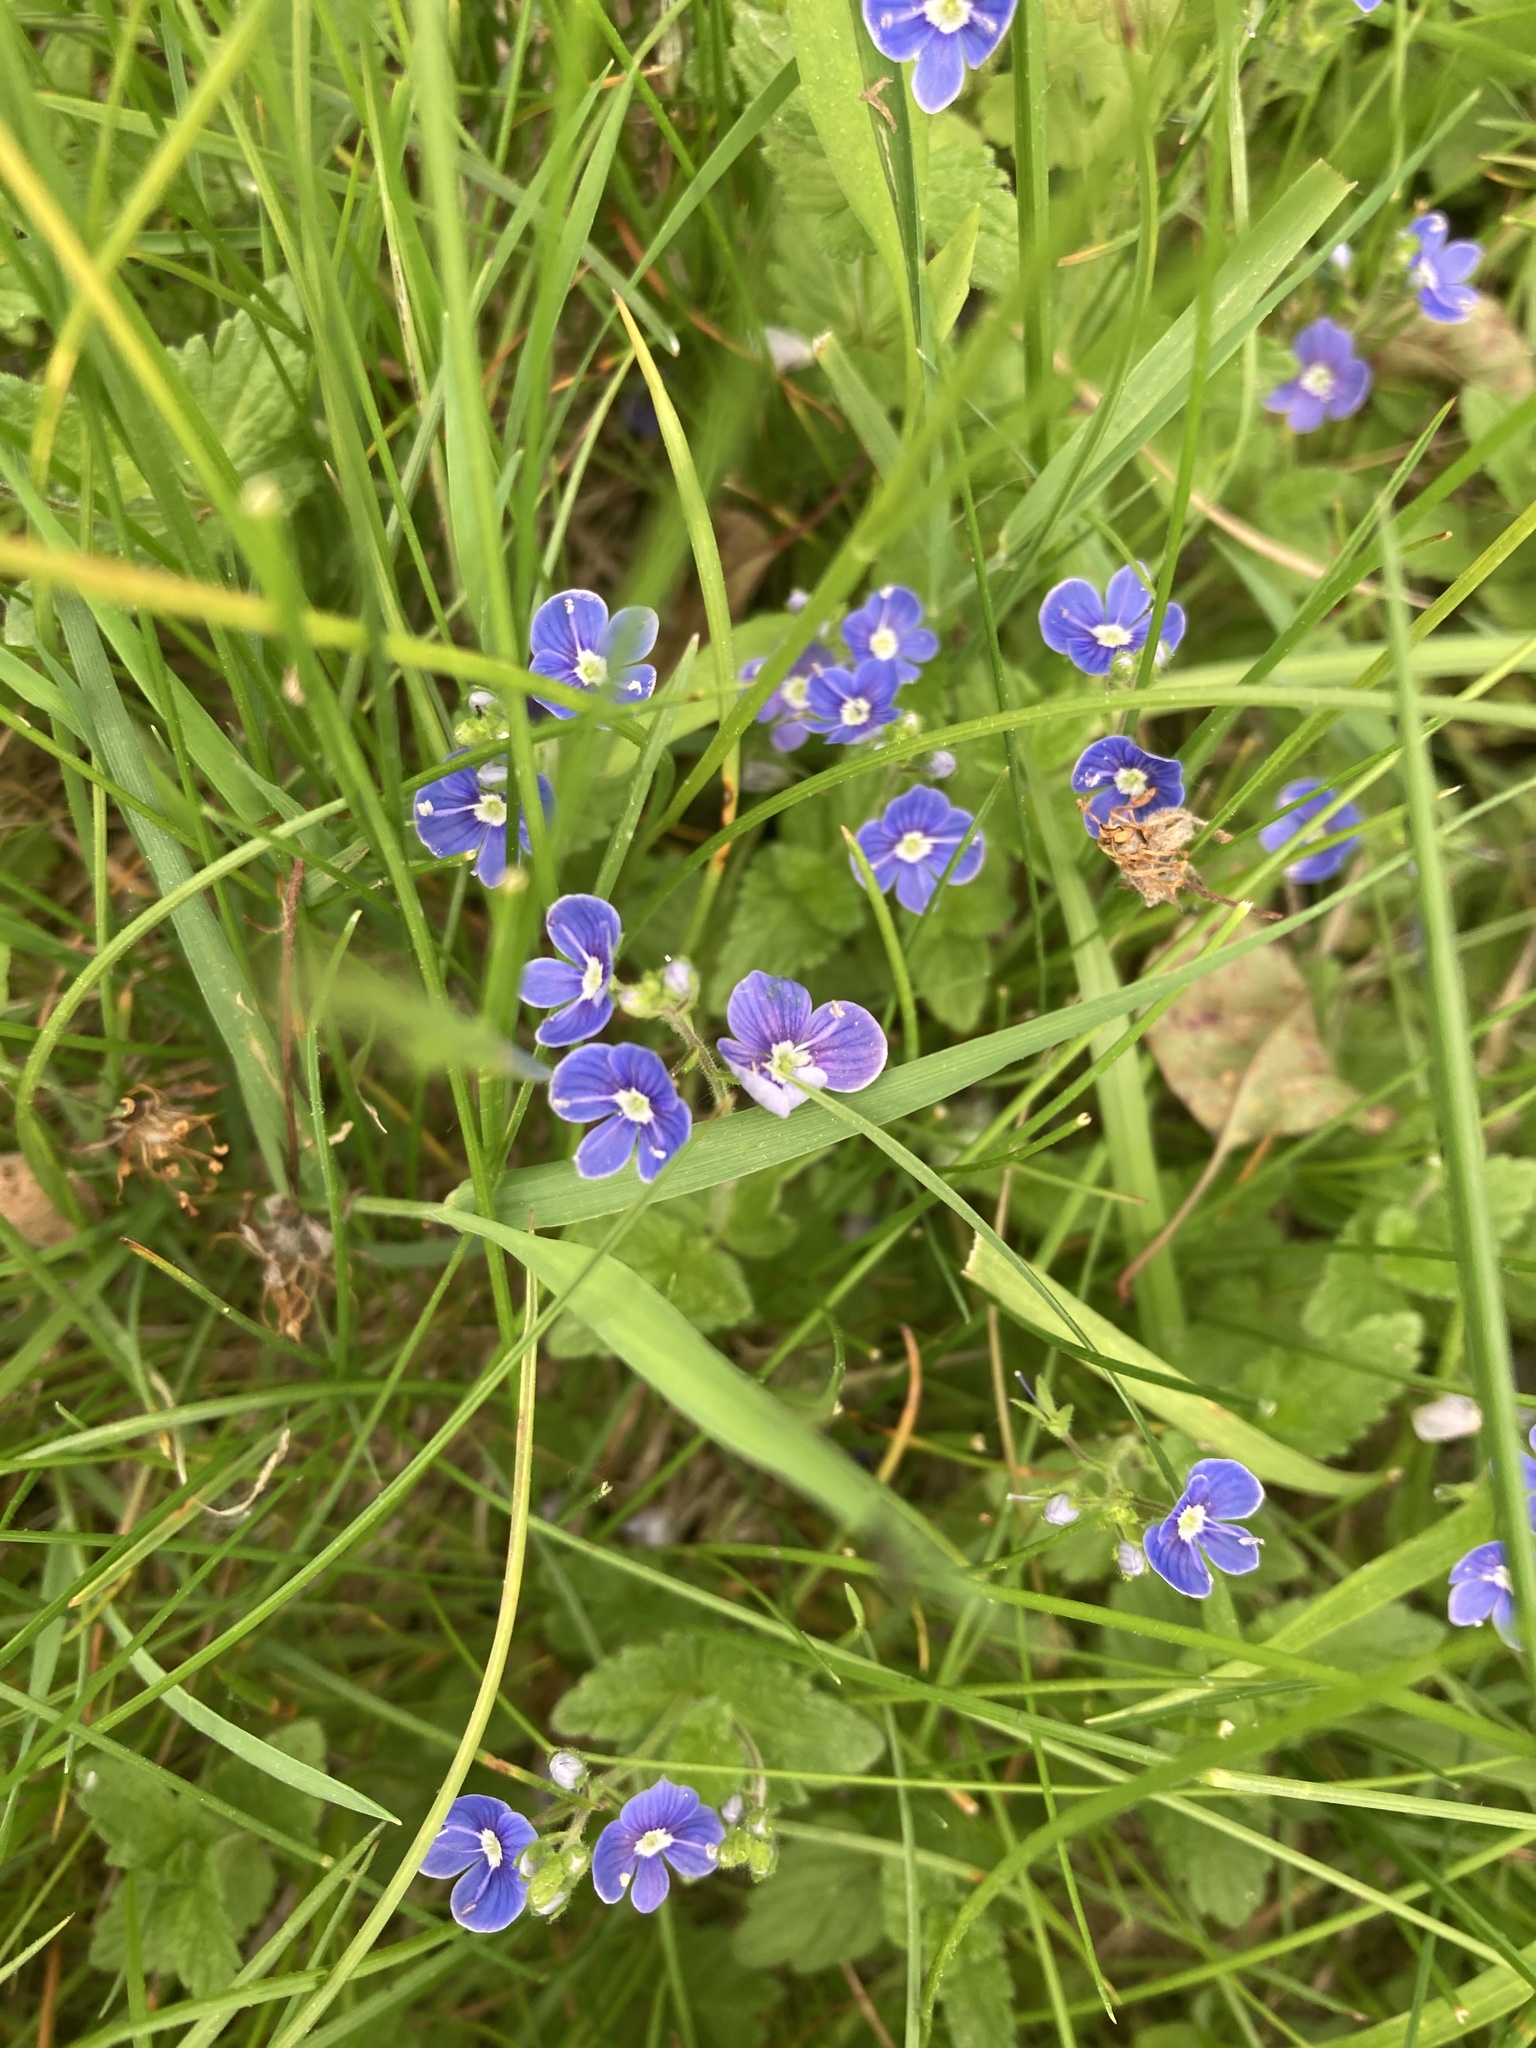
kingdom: Plantae
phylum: Tracheophyta
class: Magnoliopsida
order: Lamiales
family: Plantaginaceae
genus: Veronica
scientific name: Veronica chamaedrys
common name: Germander speedwell
